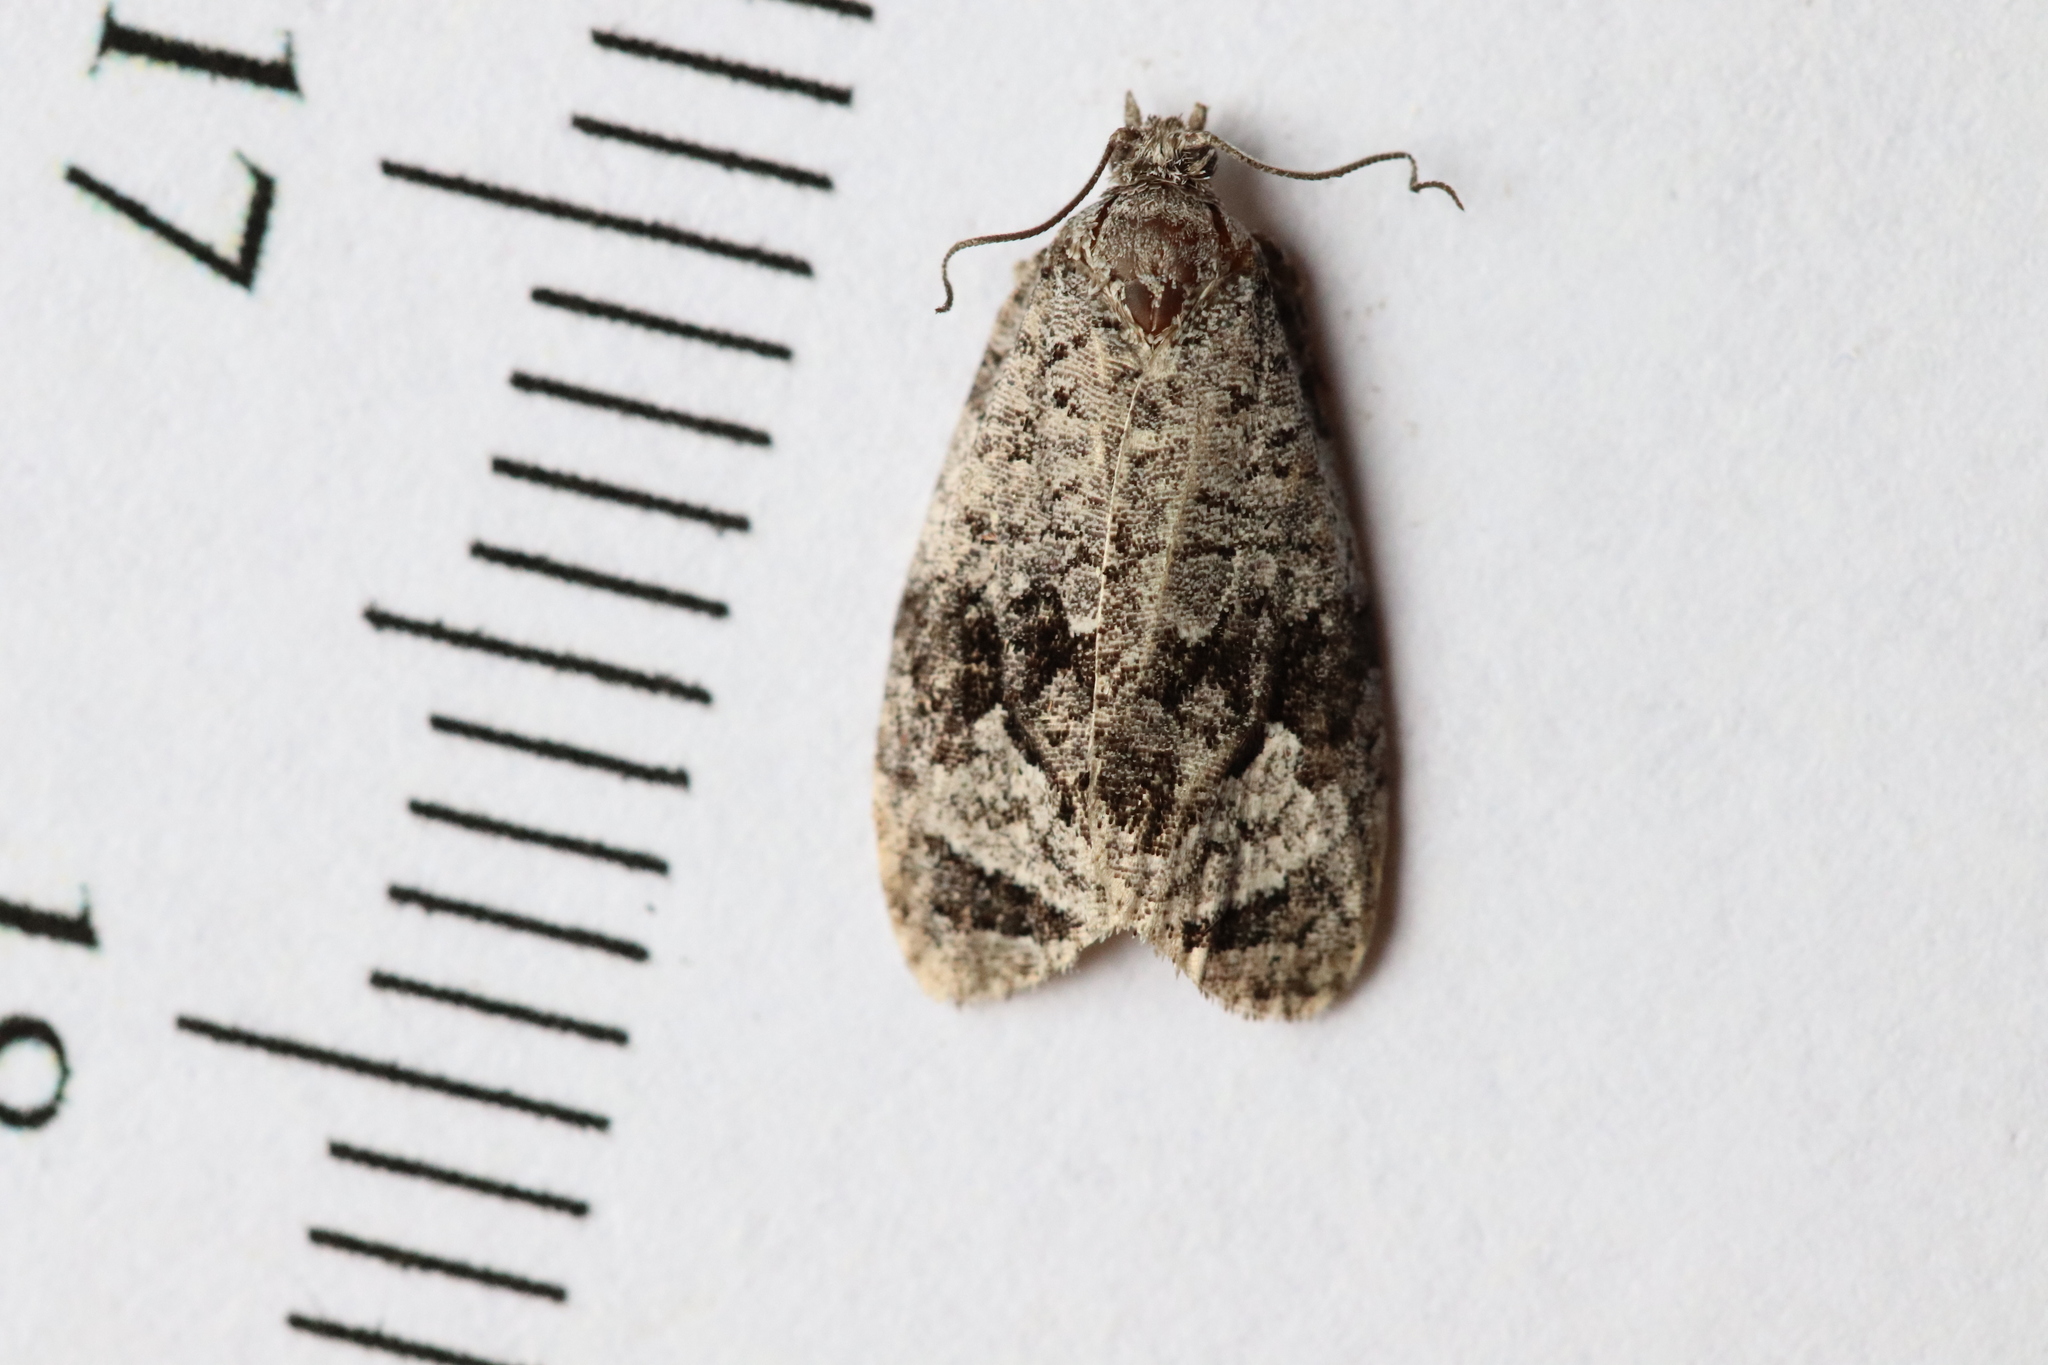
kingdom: Animalia
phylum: Arthropoda
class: Insecta
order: Lepidoptera
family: Tortricidae
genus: Apotomis
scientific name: Apotomis removana
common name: Green aspen leafroller
